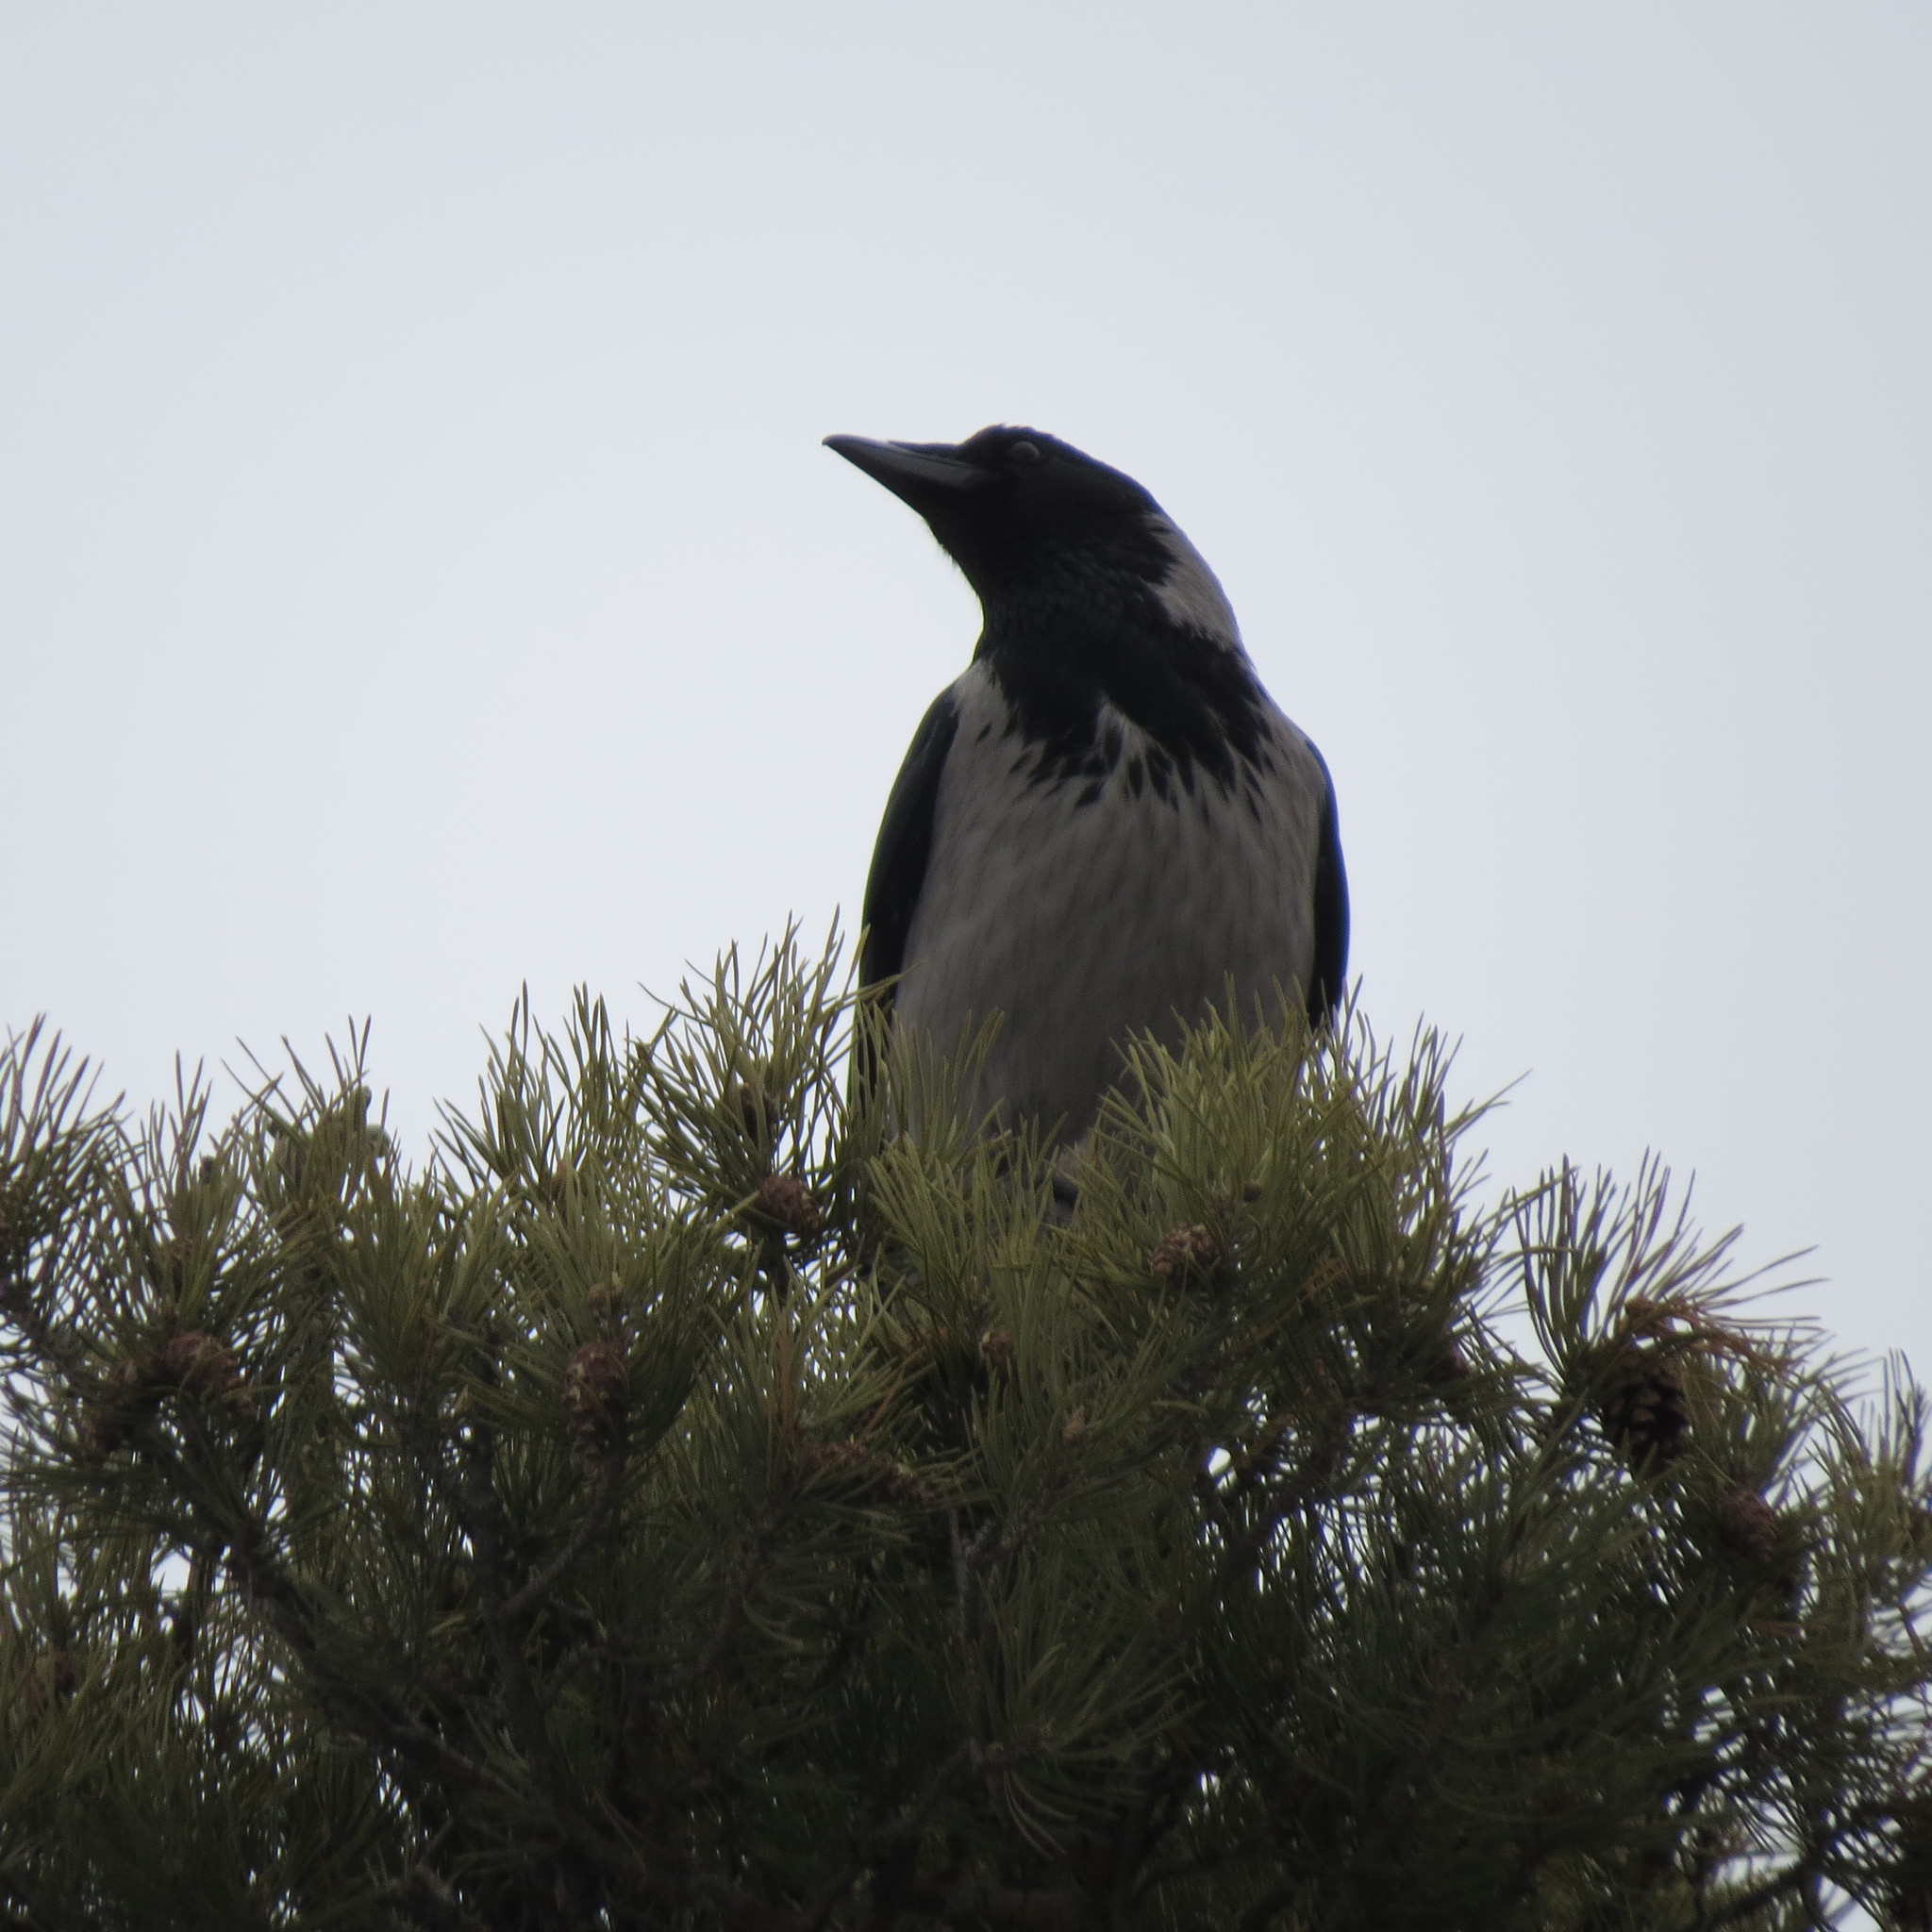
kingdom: Animalia
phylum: Chordata
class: Aves
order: Passeriformes
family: Corvidae
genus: Corvus
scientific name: Corvus cornix
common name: Hooded crow
